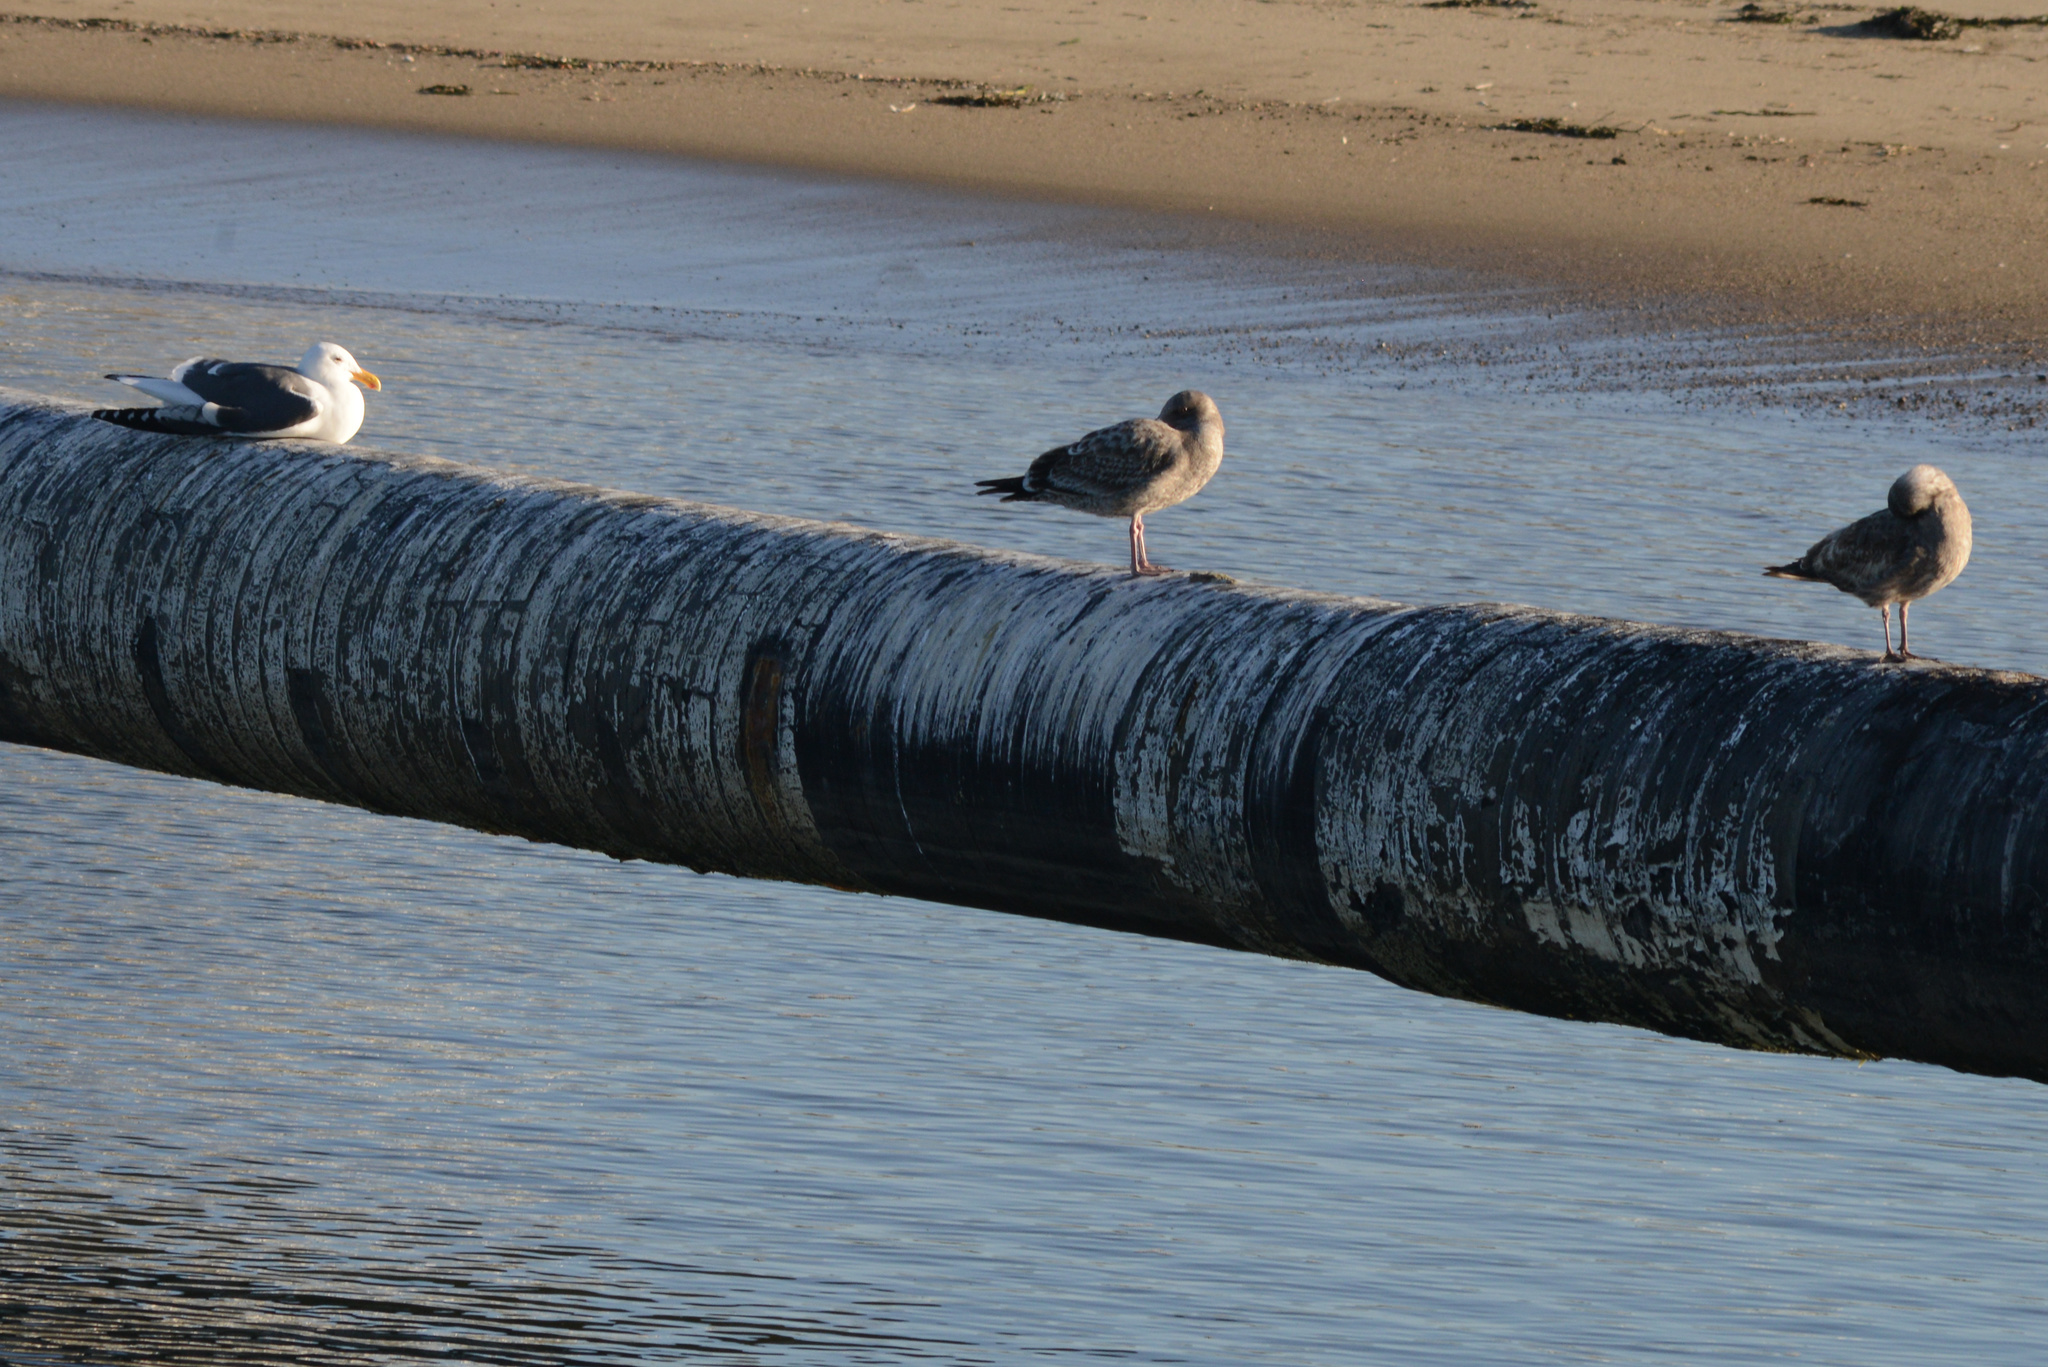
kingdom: Animalia
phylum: Chordata
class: Aves
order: Charadriiformes
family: Laridae
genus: Larus
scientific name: Larus occidentalis
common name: Western gull
